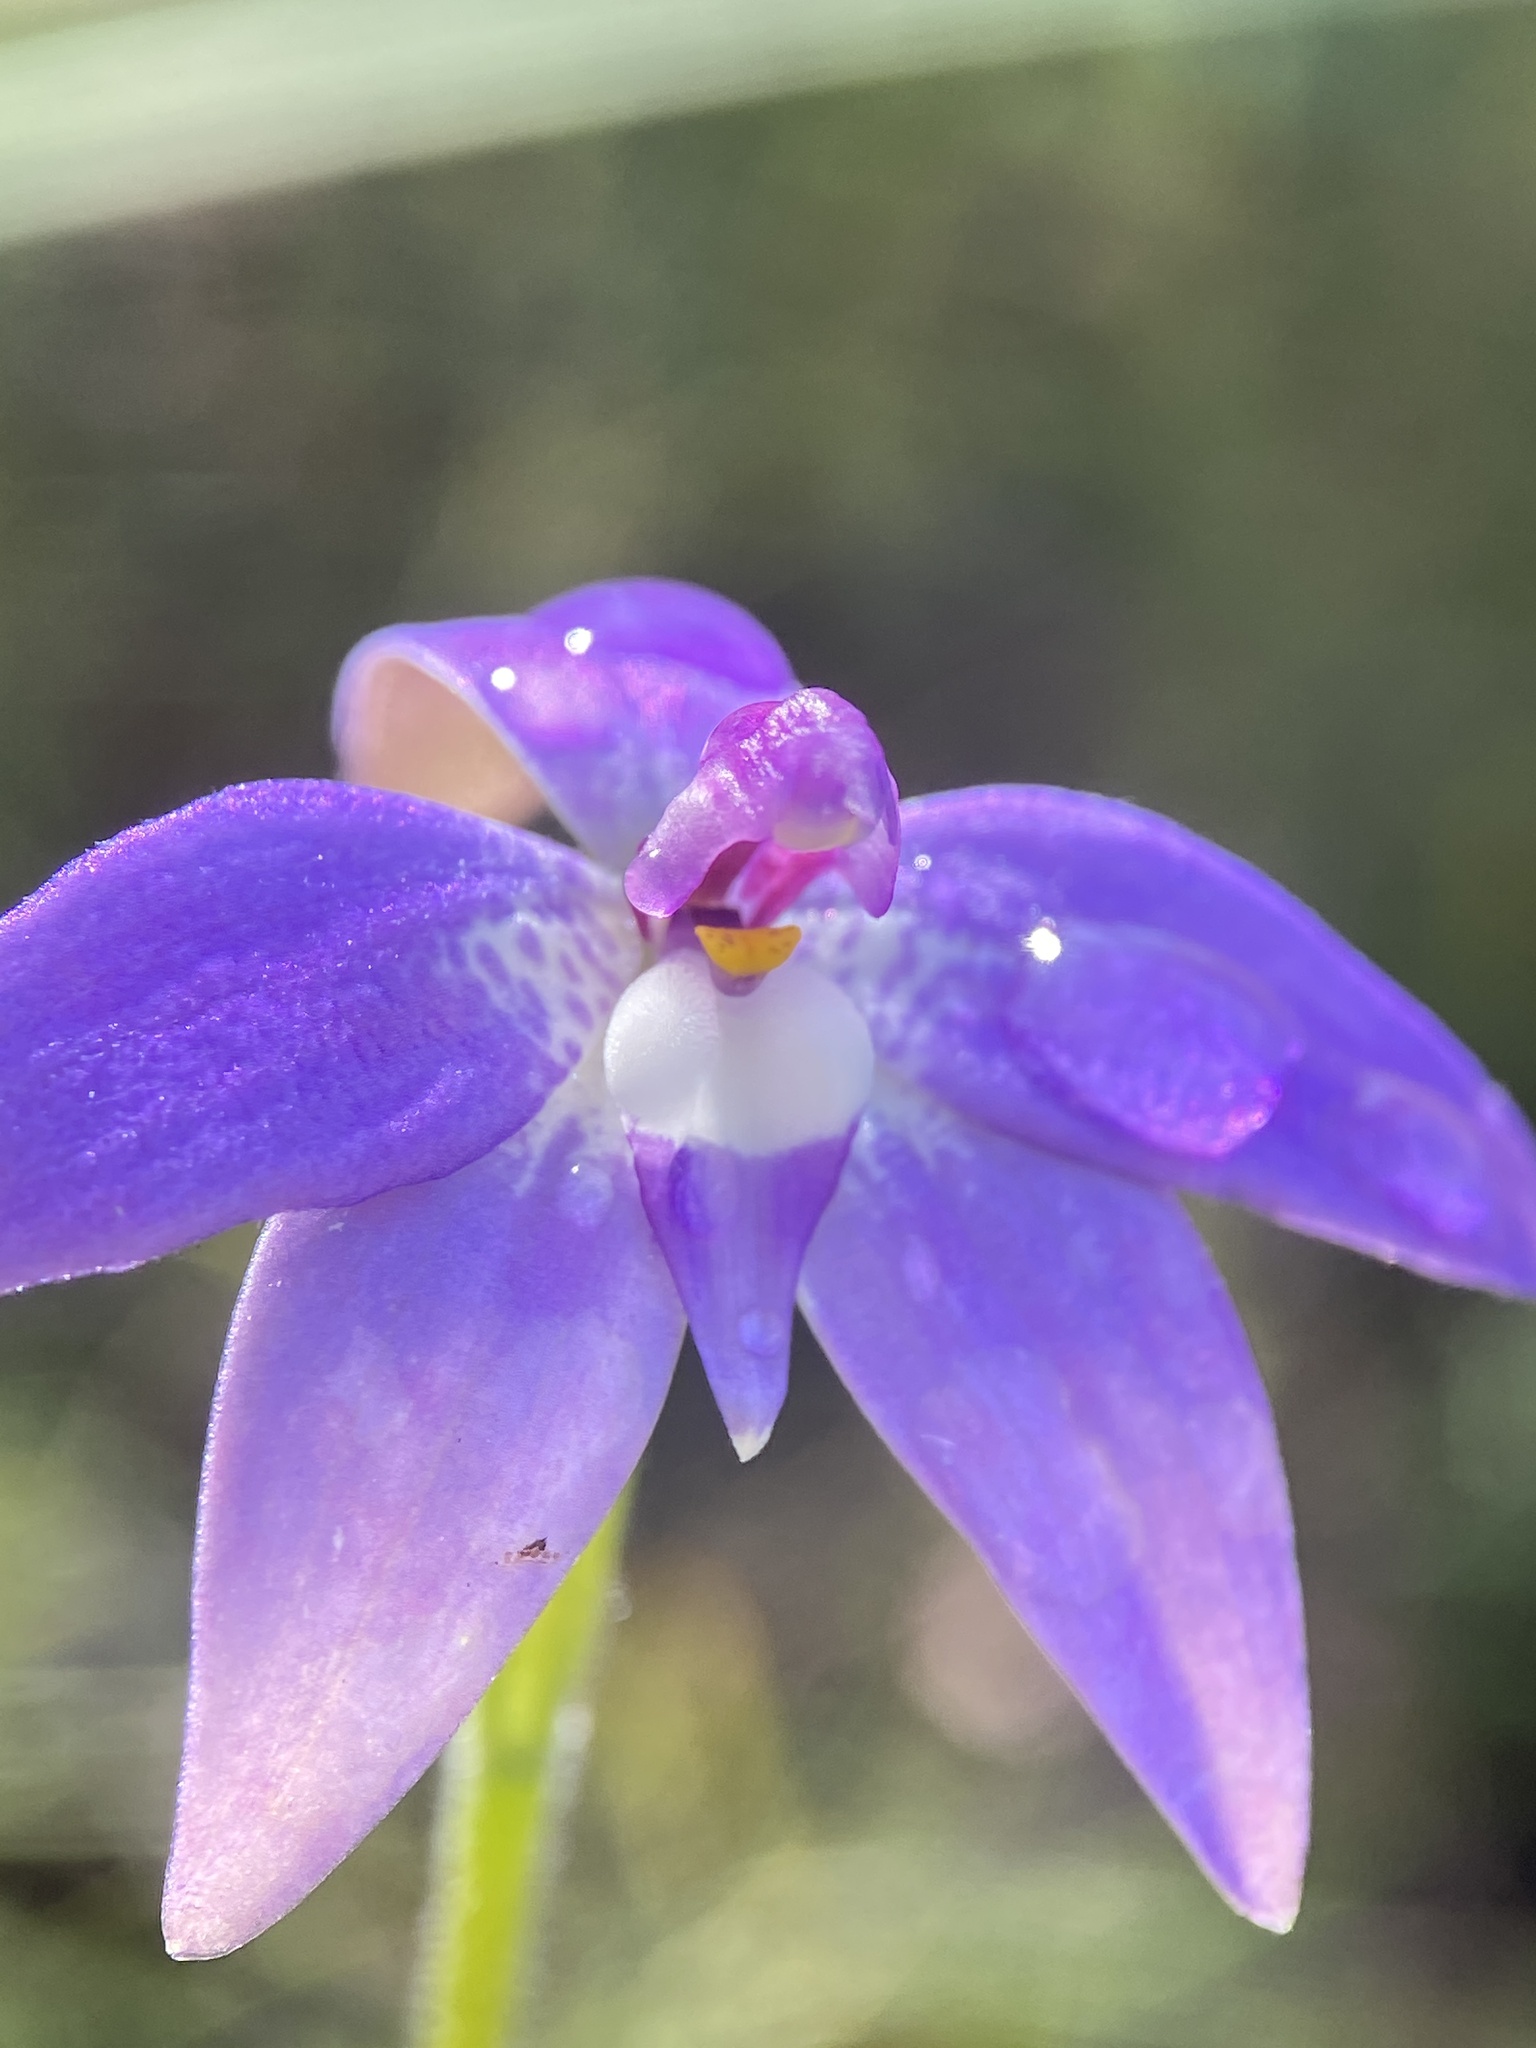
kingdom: Plantae
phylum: Tracheophyta
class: Liliopsida
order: Asparagales
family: Orchidaceae
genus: Caladenia
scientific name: Caladenia major
